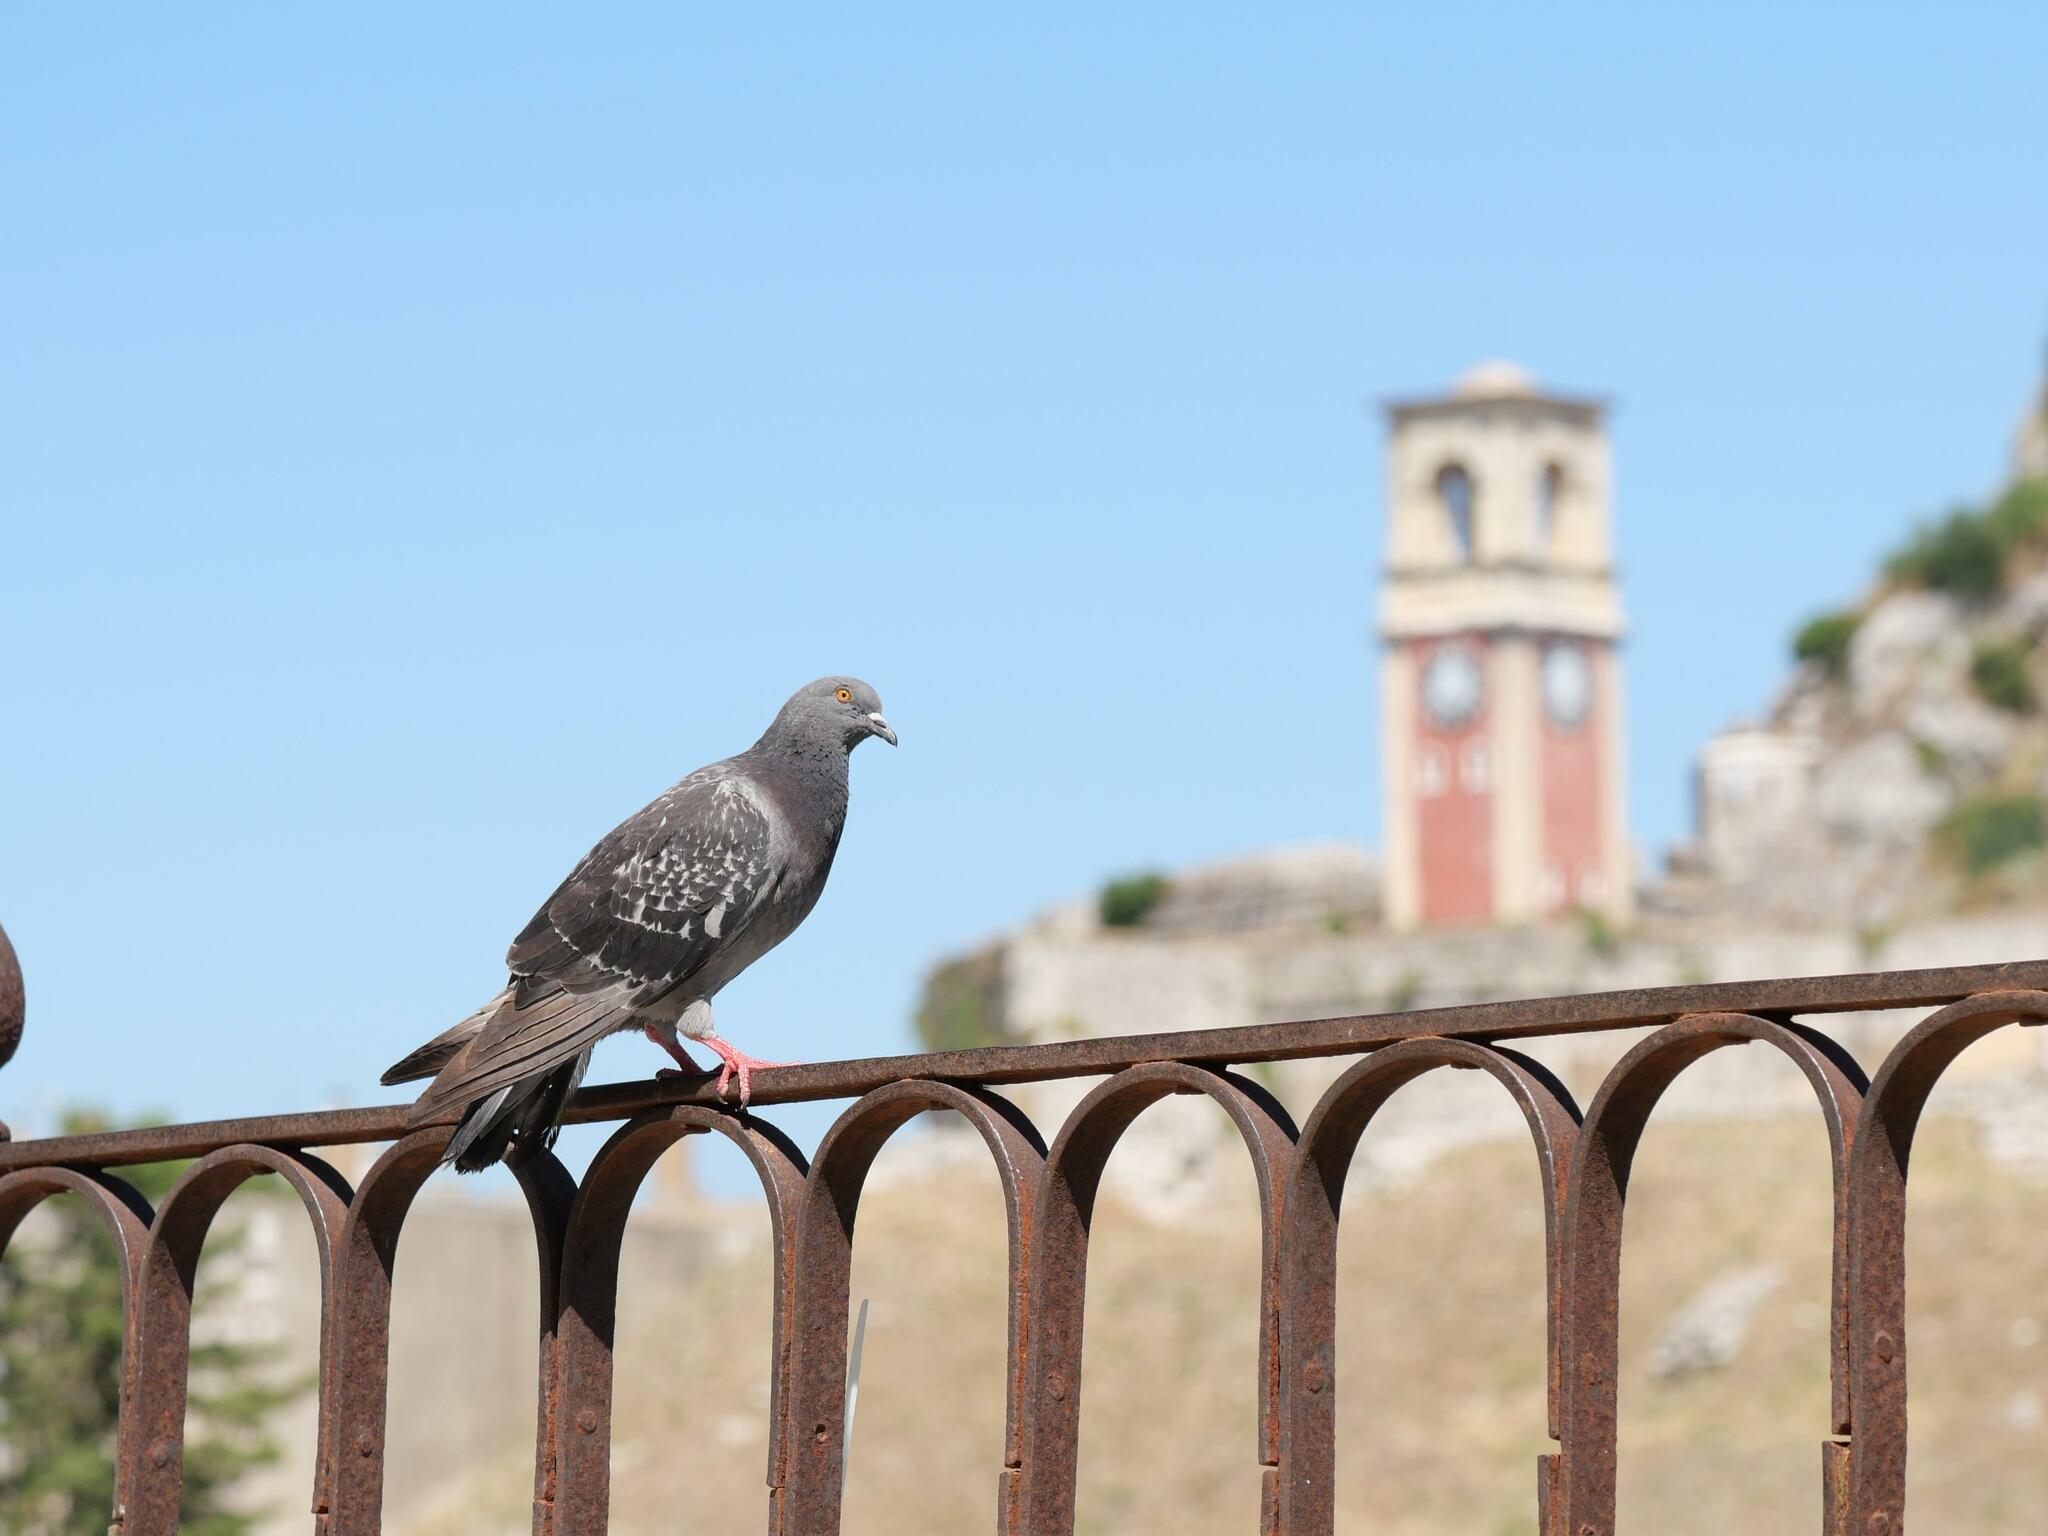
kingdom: Animalia
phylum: Chordata
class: Aves
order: Columbiformes
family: Columbidae
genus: Columba
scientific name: Columba livia
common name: Rock pigeon
